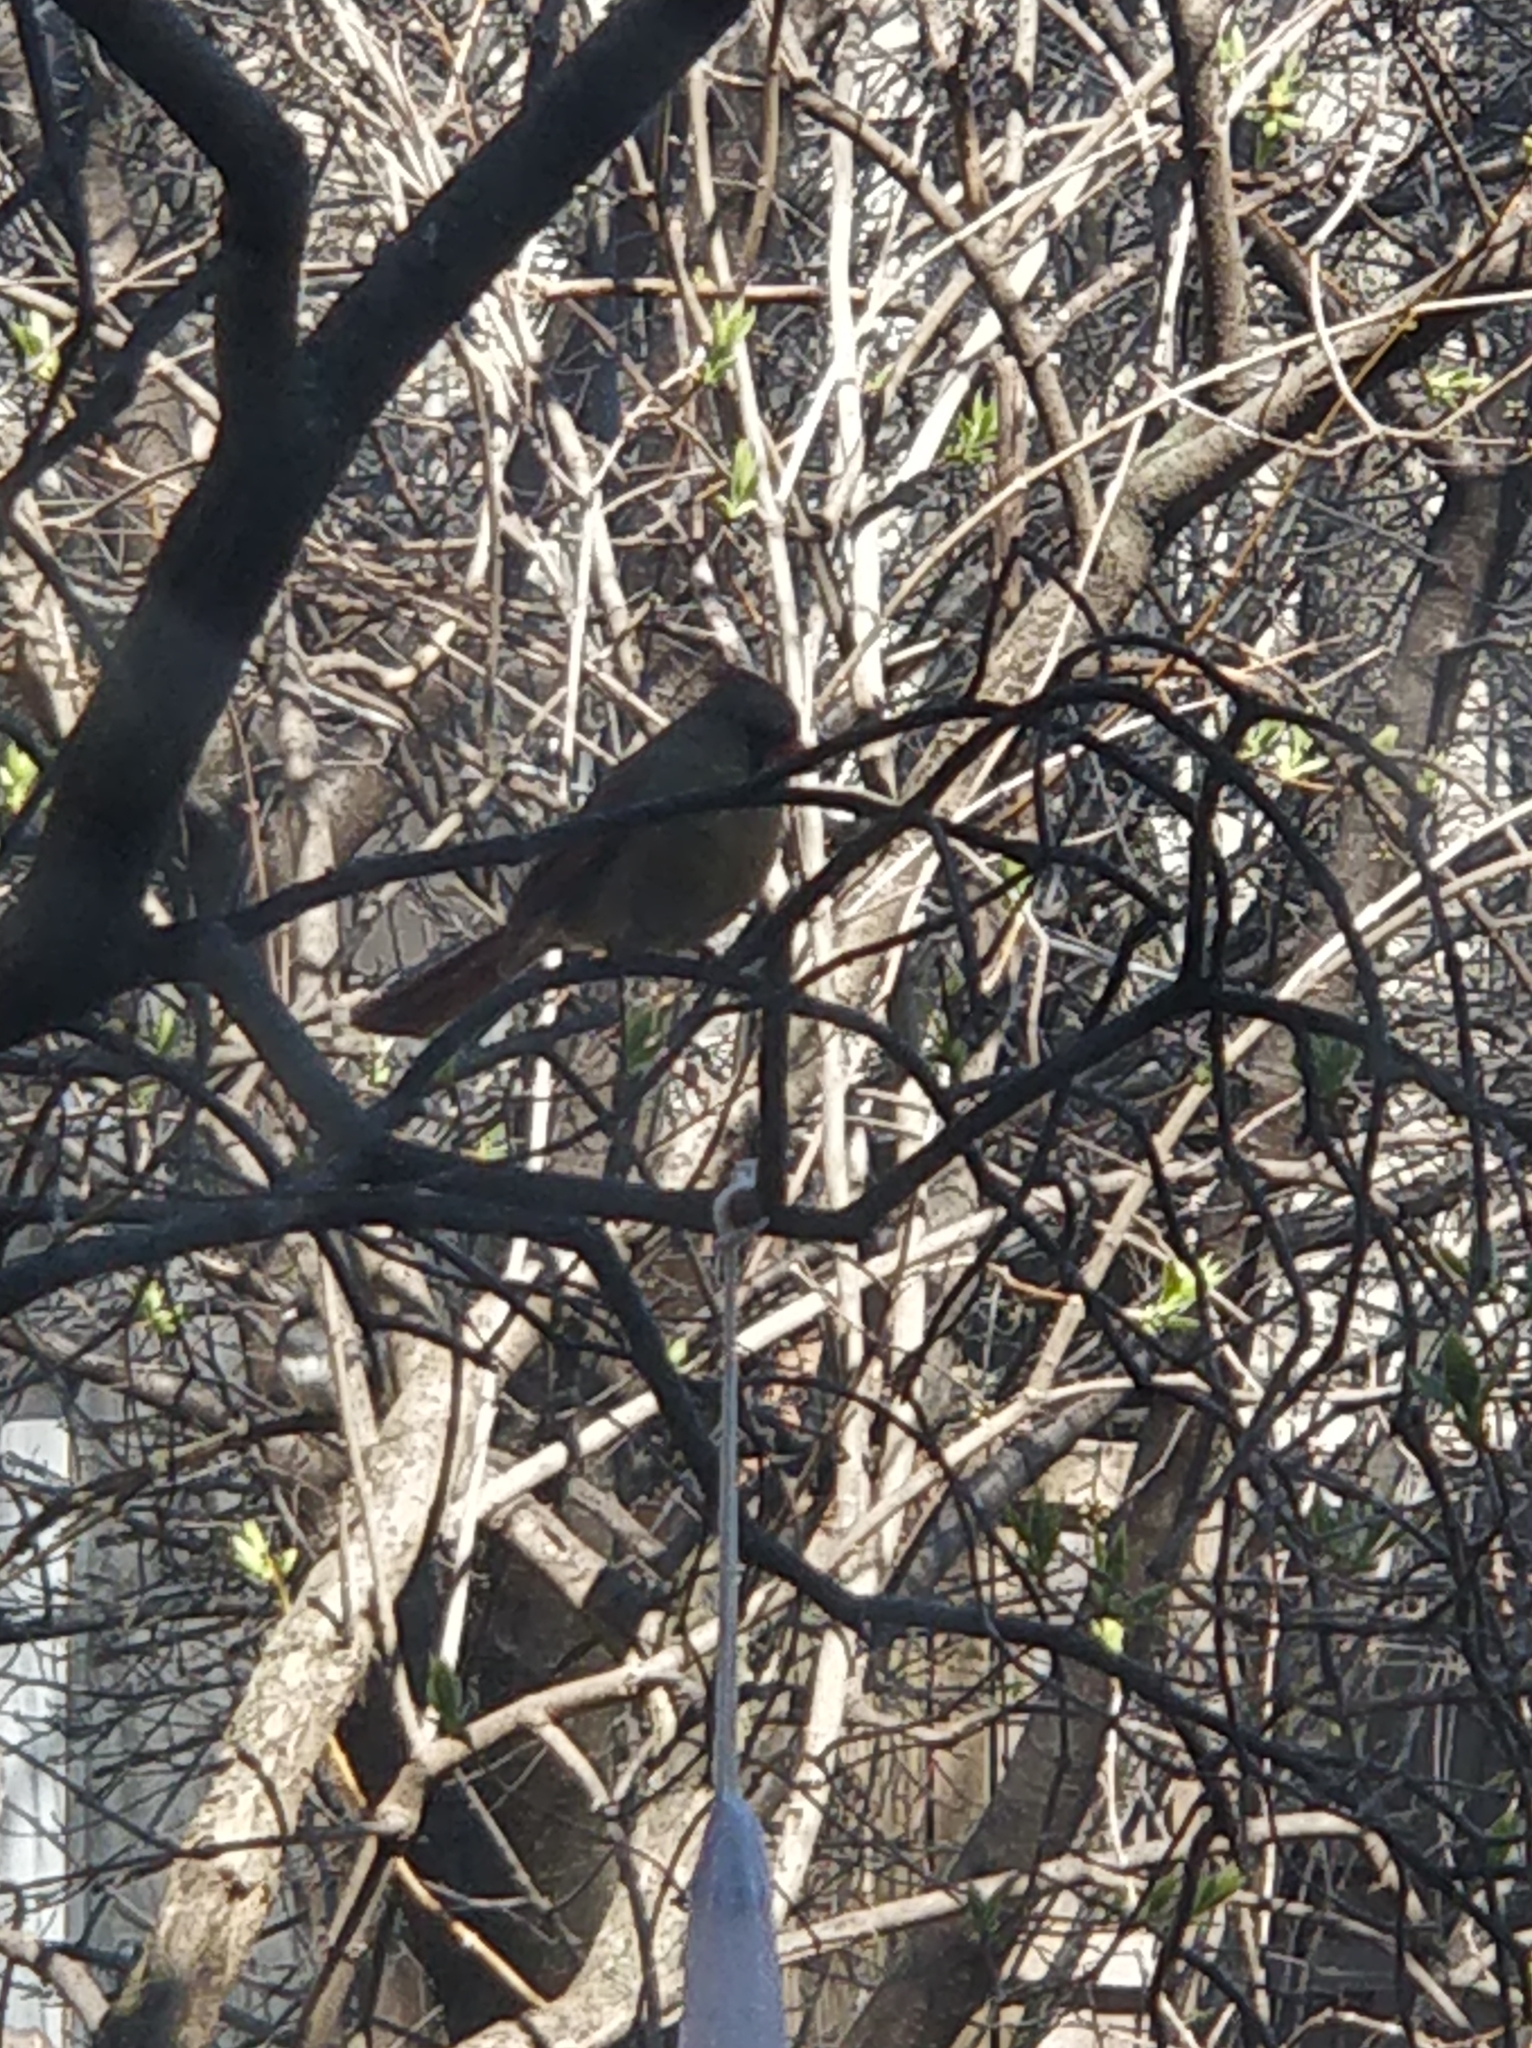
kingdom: Animalia
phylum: Chordata
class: Aves
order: Passeriformes
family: Cardinalidae
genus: Cardinalis
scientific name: Cardinalis cardinalis
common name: Northern cardinal
